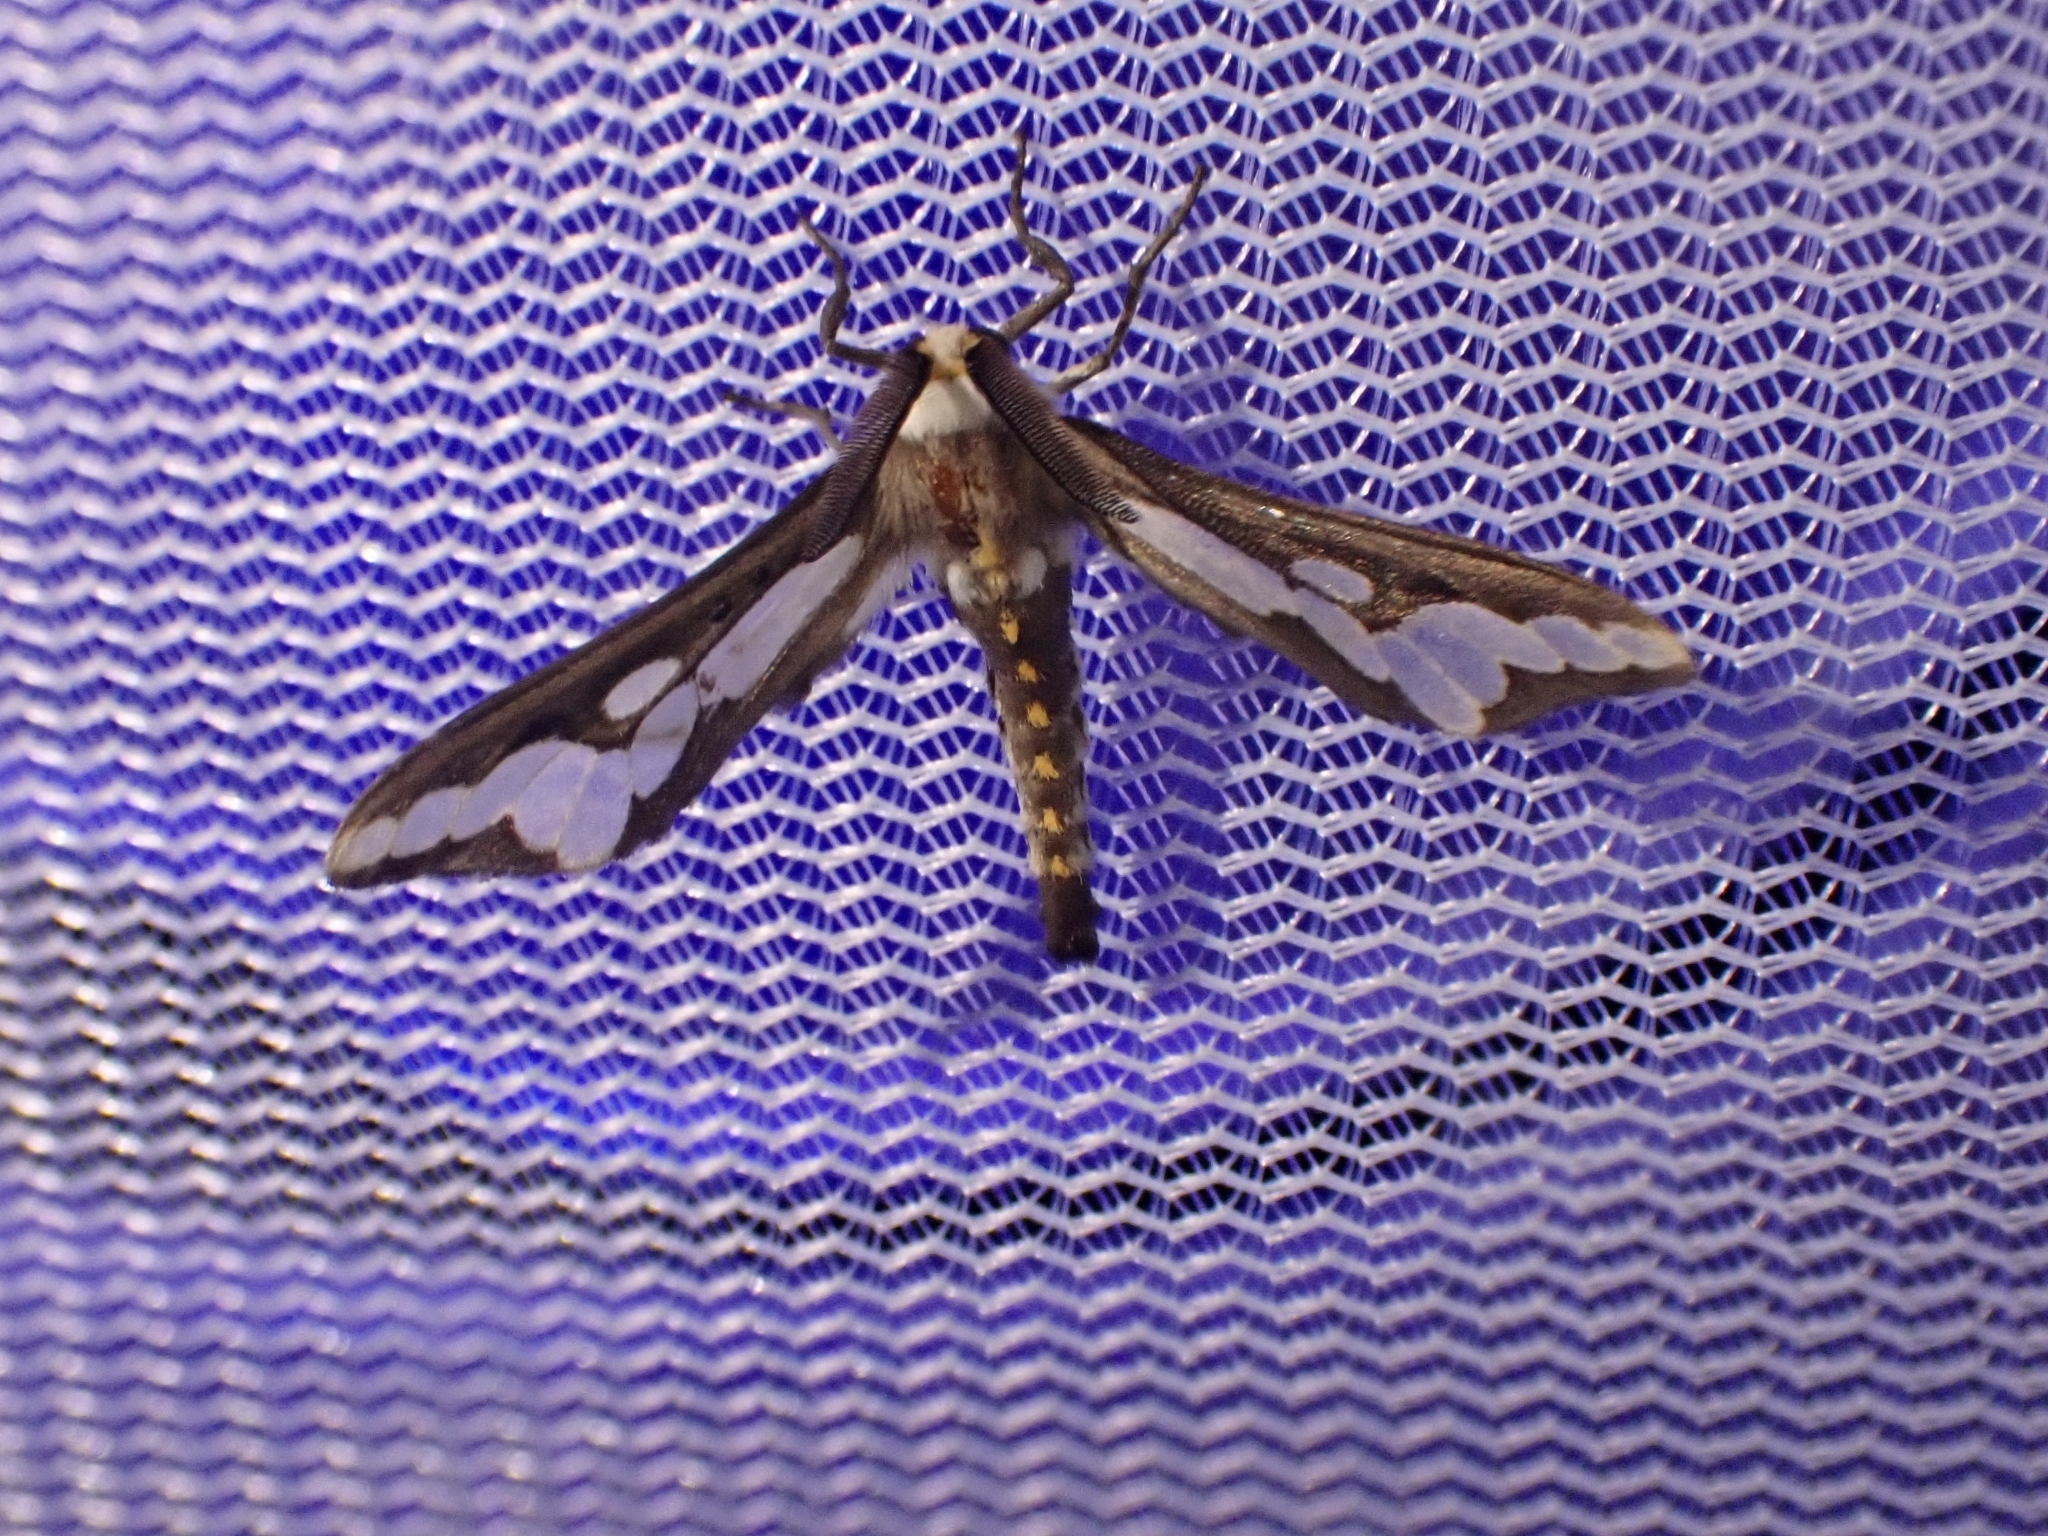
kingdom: Animalia
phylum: Arthropoda
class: Insecta
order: Lepidoptera
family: Erebidae
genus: Thyretes
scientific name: Thyretes caffra
